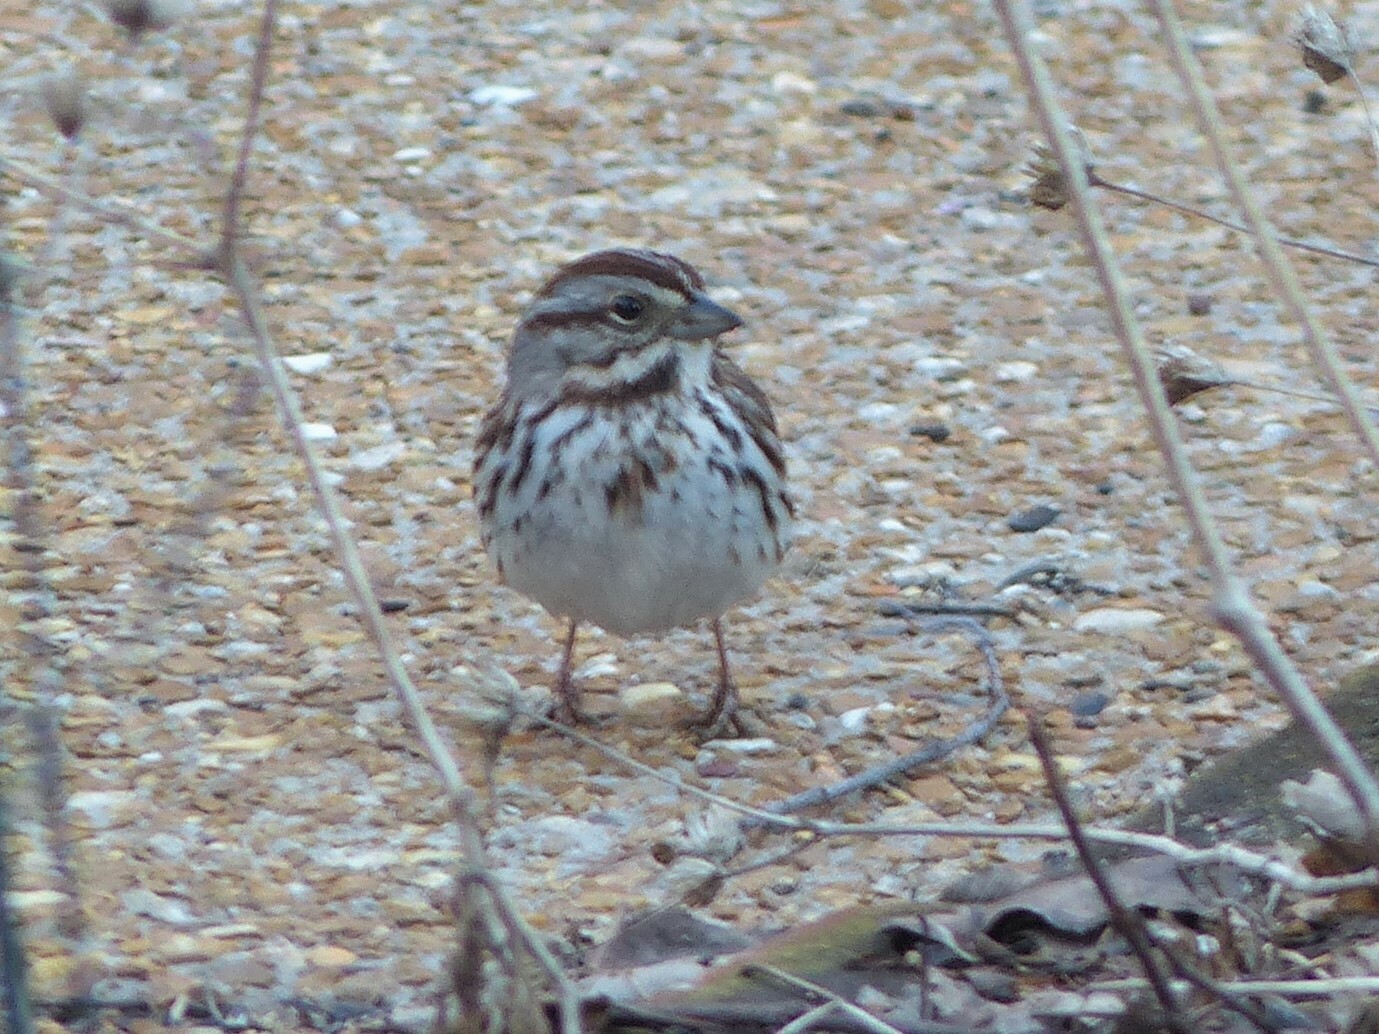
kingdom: Animalia
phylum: Chordata
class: Aves
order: Passeriformes
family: Passerellidae
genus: Melospiza
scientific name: Melospiza melodia
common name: Song sparrow
